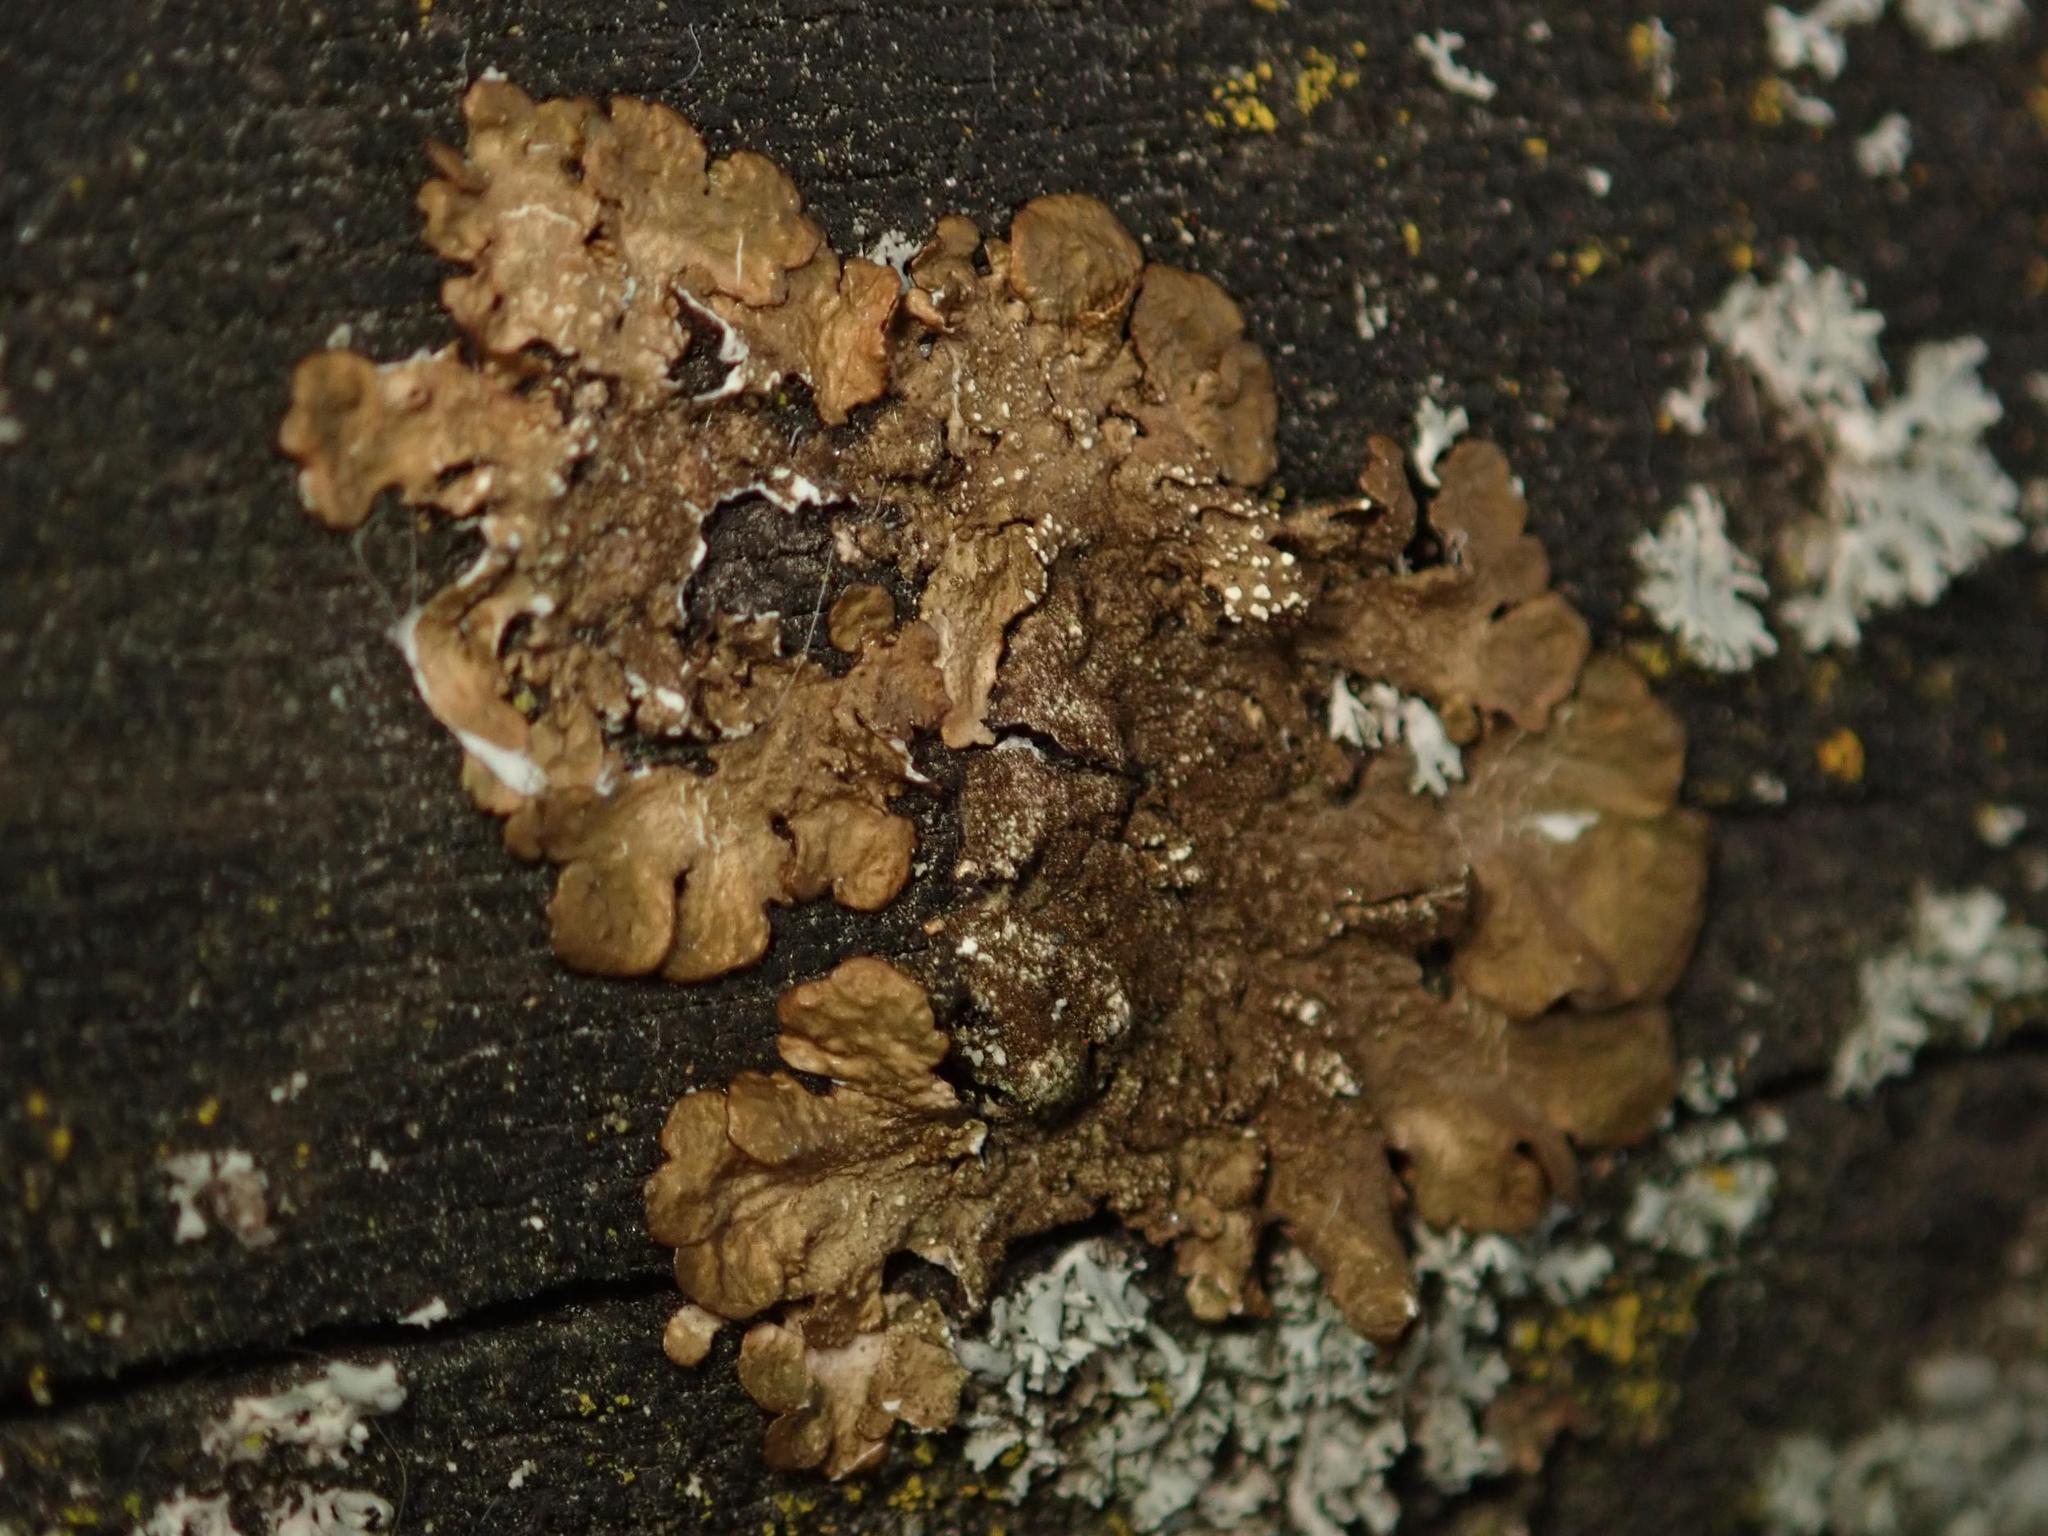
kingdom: Fungi
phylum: Ascomycota
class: Lecanoromycetes
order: Lecanorales
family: Parmeliaceae
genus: Melanelixia
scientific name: Melanelixia subaurifera
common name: Abraded camouflage lichen
